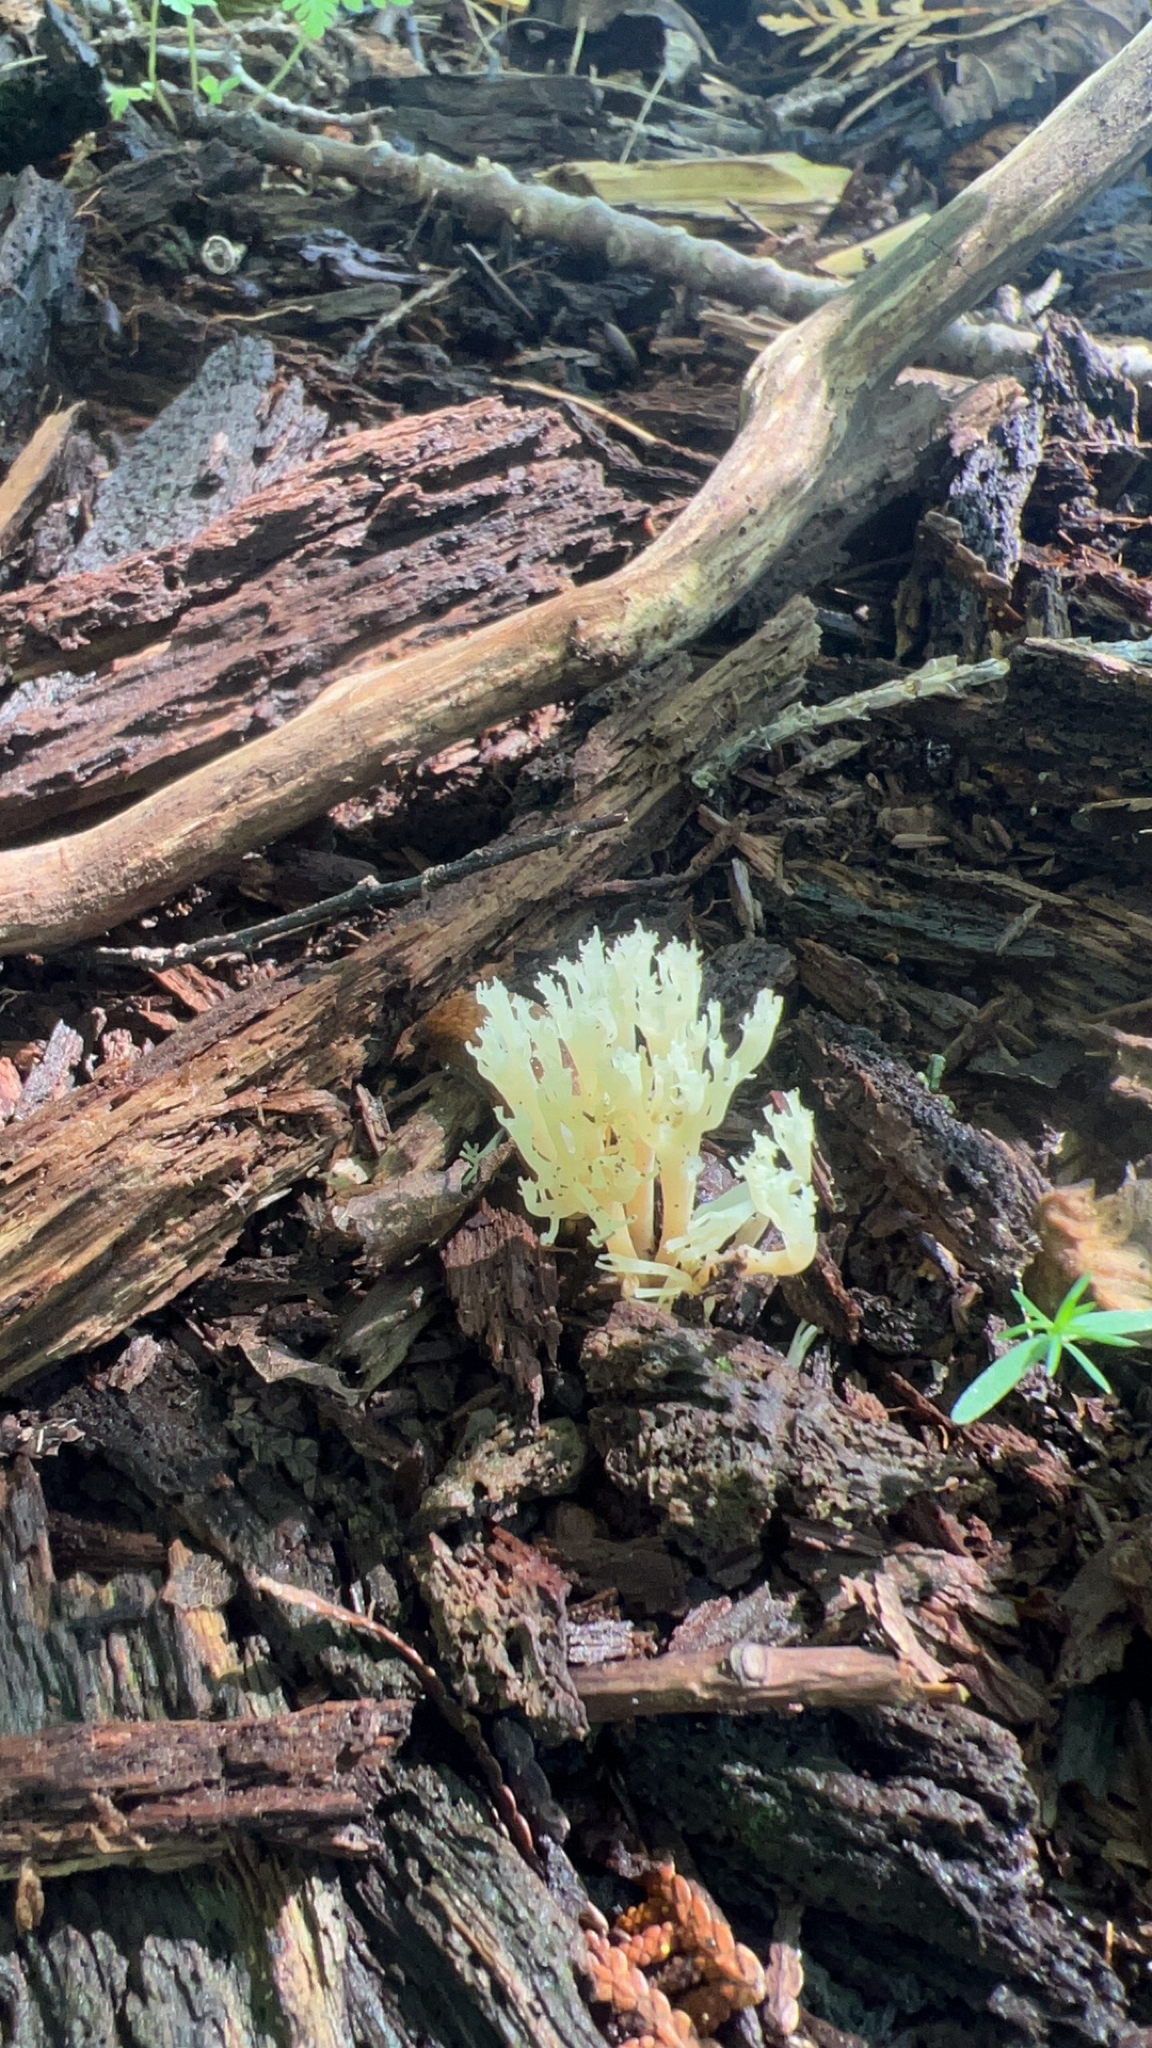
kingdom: Fungi
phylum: Basidiomycota
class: Agaricomycetes
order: Russulales
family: Auriscalpiaceae
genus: Artomyces
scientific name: Artomyces pyxidatus
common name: Crown-tipped coral fungus
